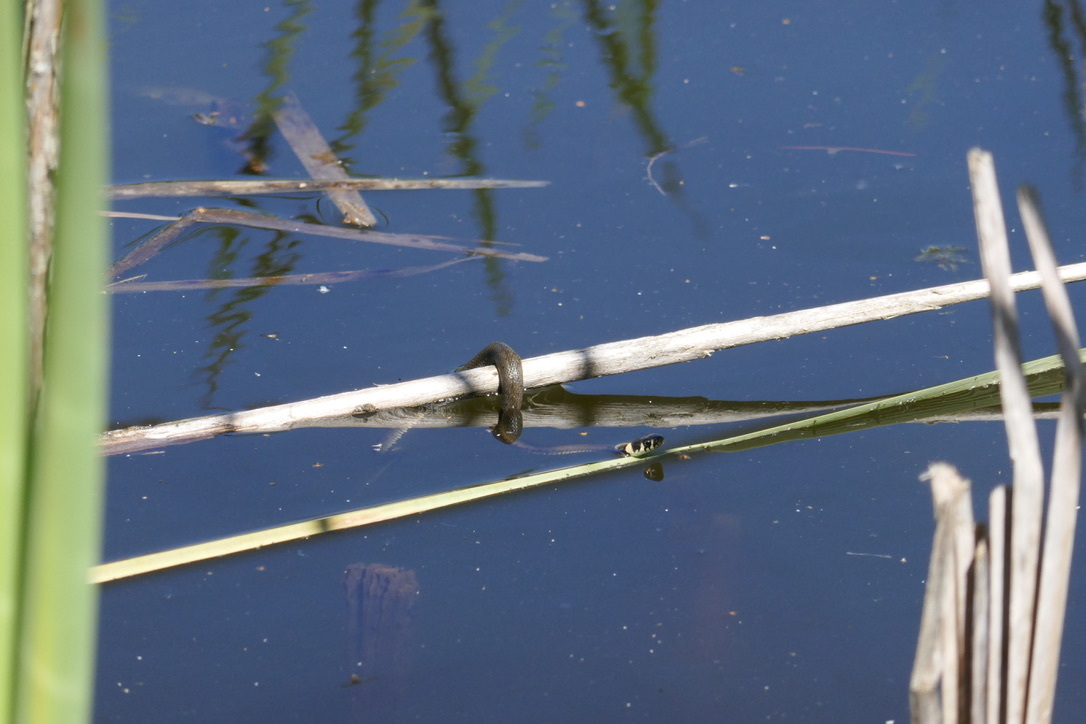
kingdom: Animalia
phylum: Chordata
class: Squamata
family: Colubridae
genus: Natrix
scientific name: Natrix natrix
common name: Grass snake
